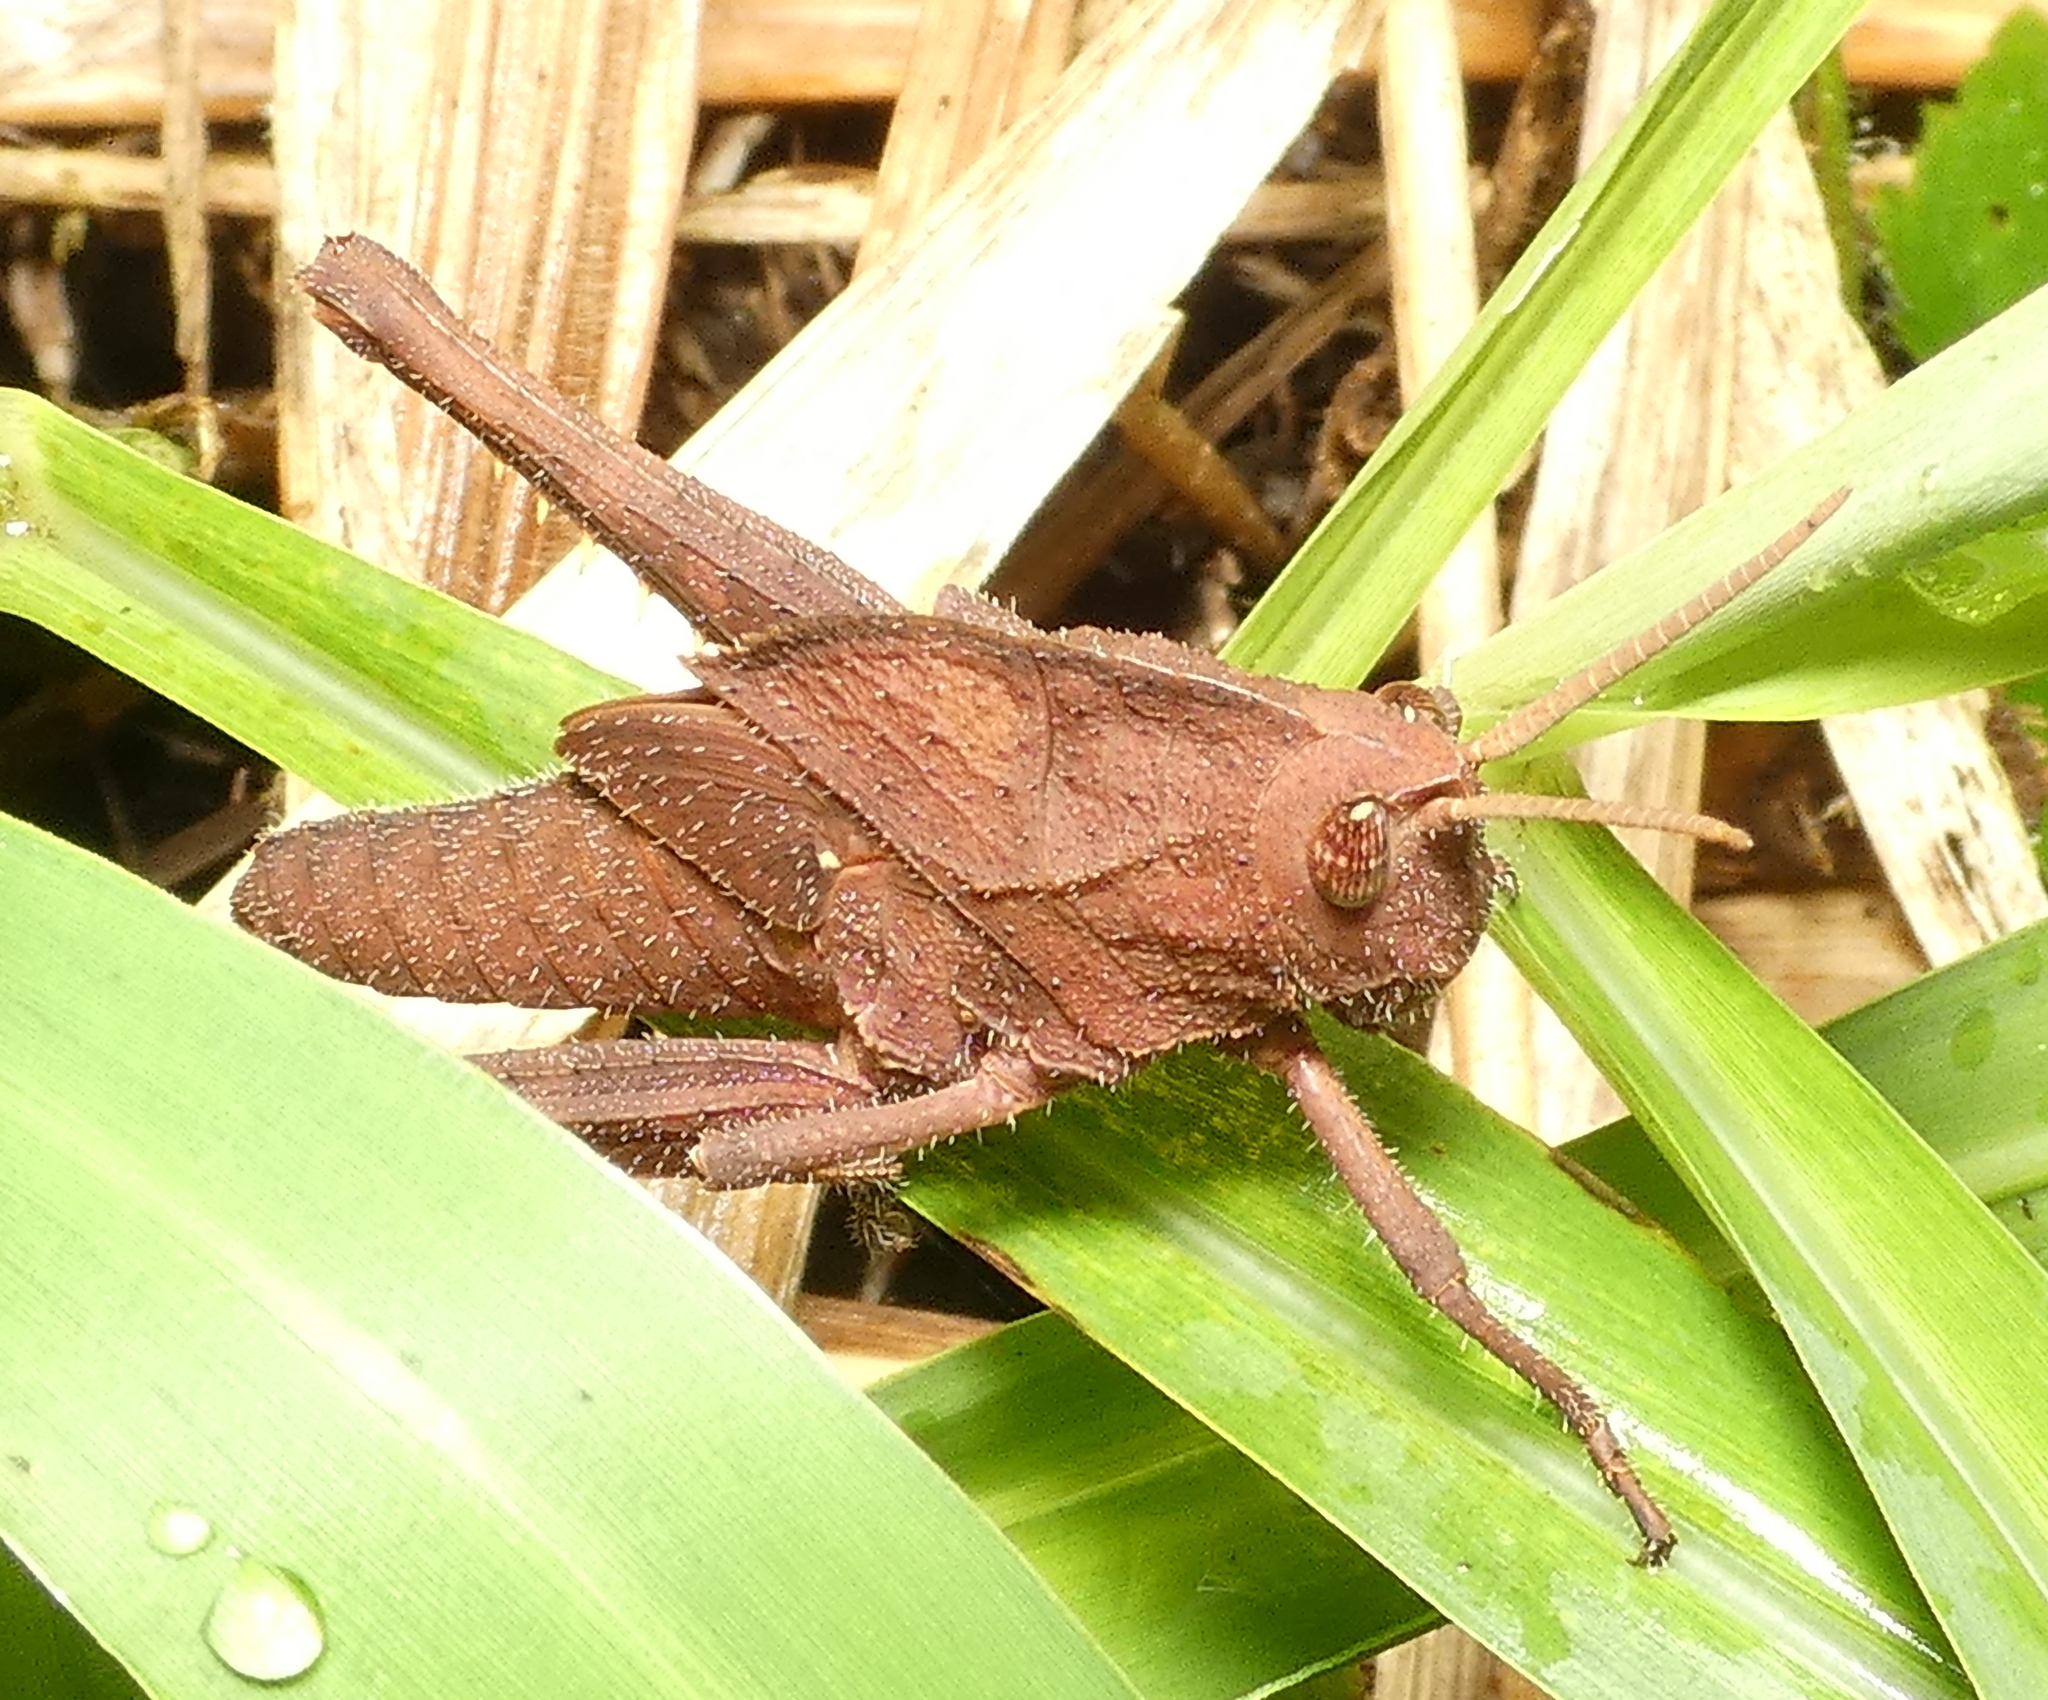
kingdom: Animalia
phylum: Arthropoda
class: Insecta
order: Orthoptera
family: Romaleidae
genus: Xyleus
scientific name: Xyleus discoideus
